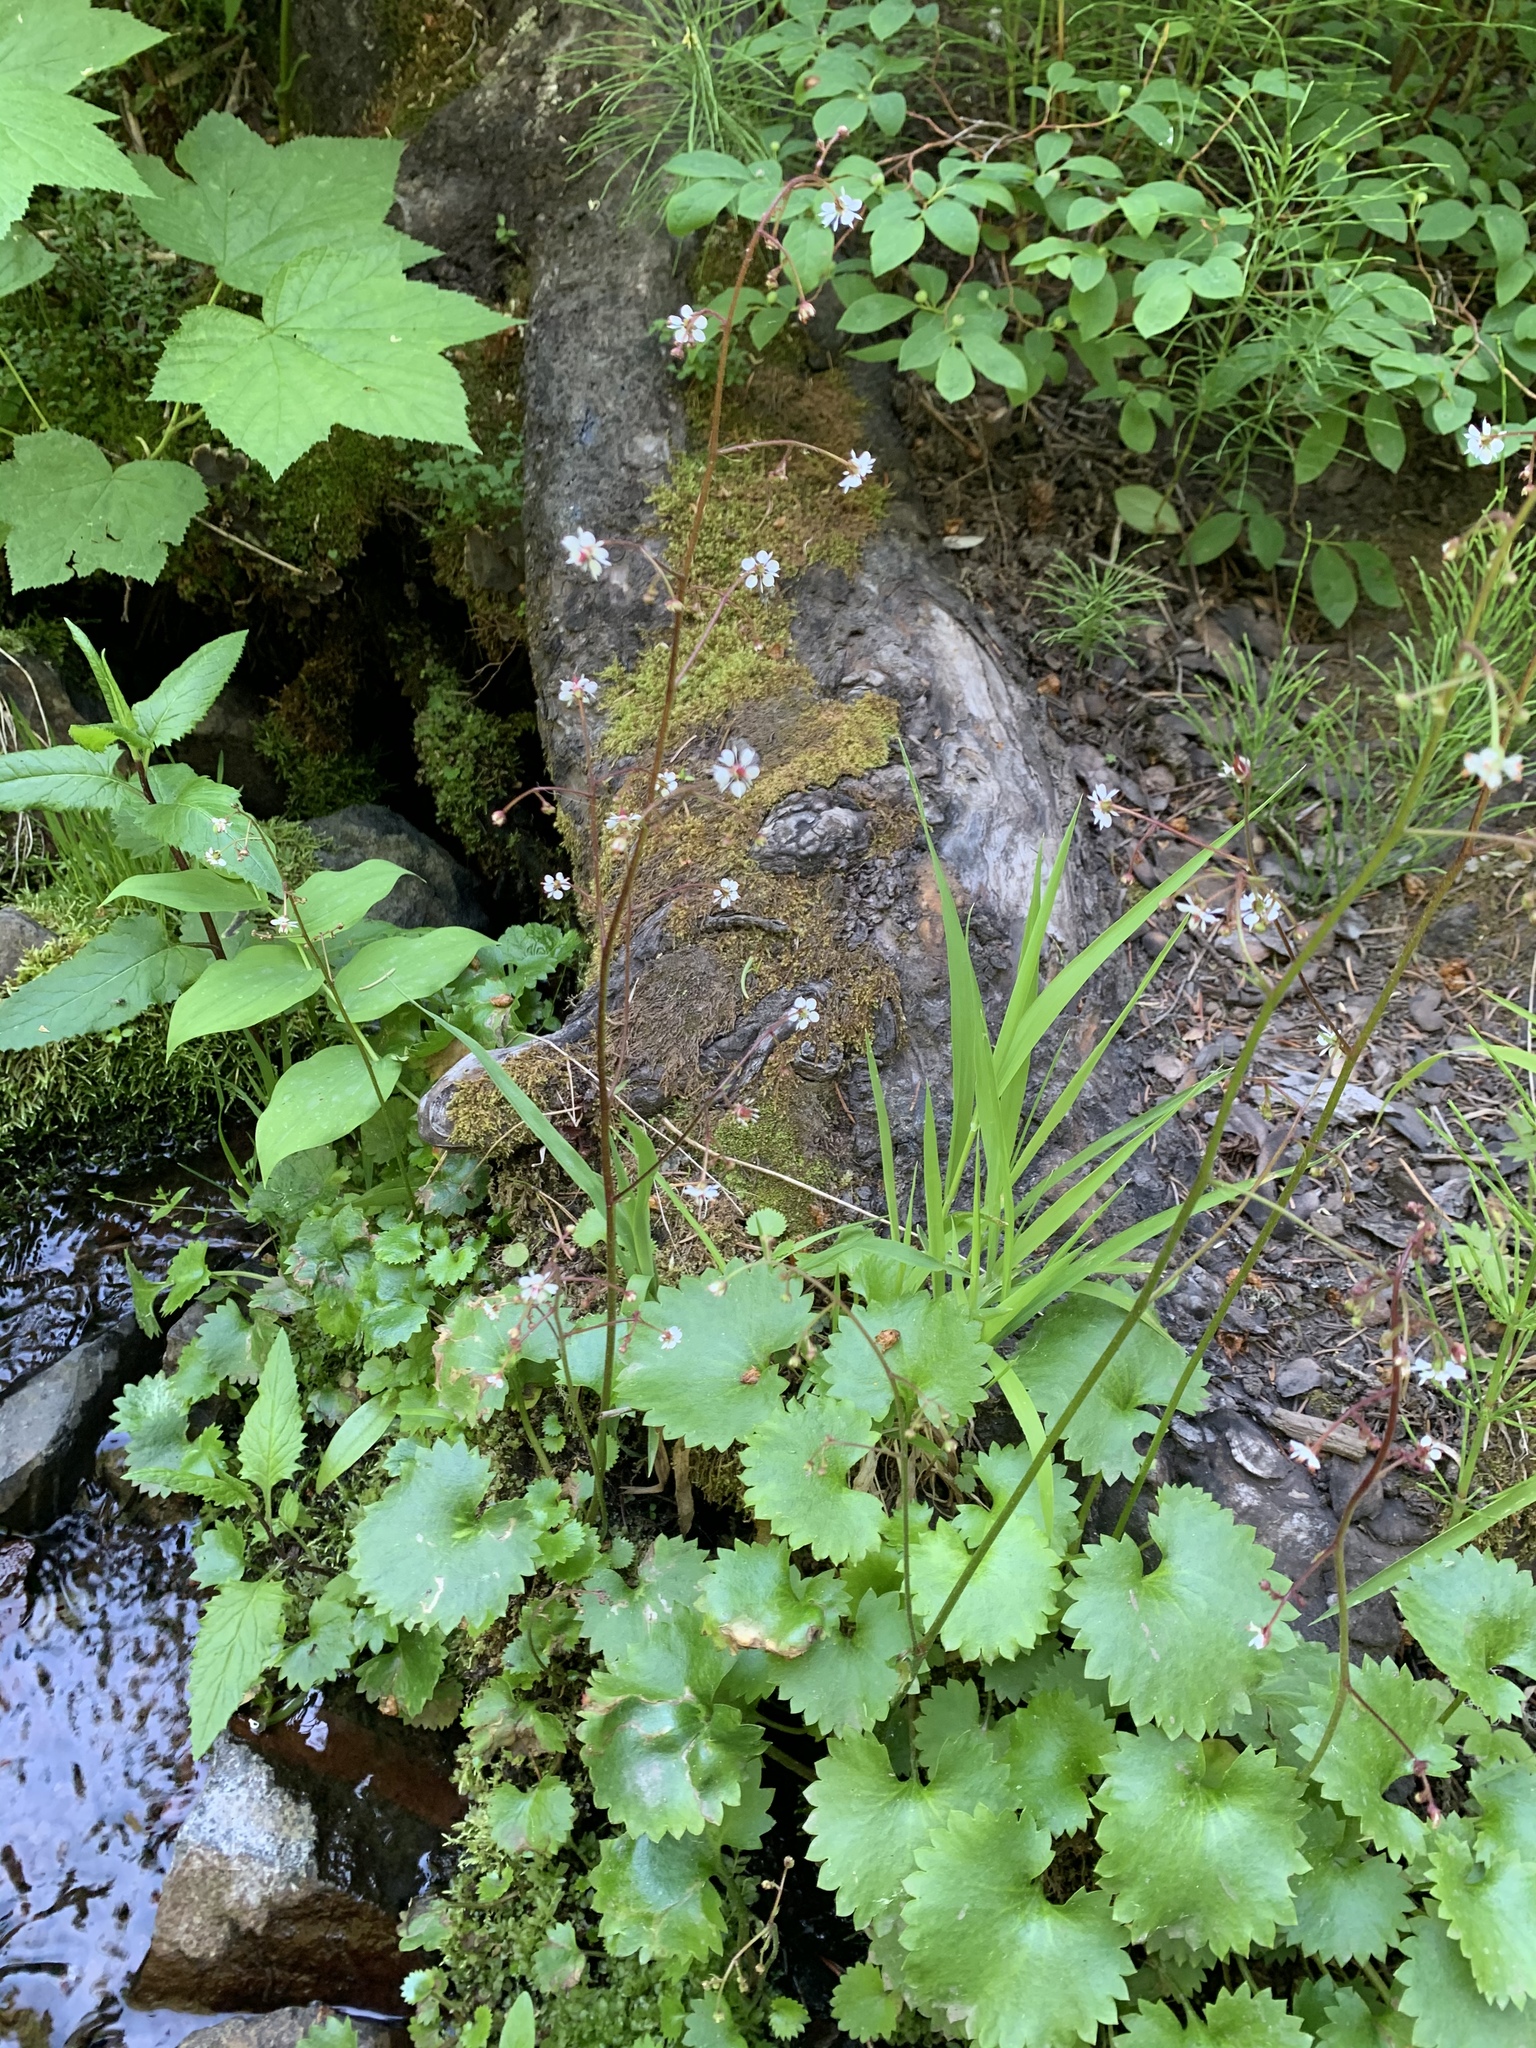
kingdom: Plantae
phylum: Tracheophyta
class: Magnoliopsida
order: Saxifragales
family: Saxifragaceae
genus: Micranthes
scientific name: Micranthes odontoloma
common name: Brook saxifrage
